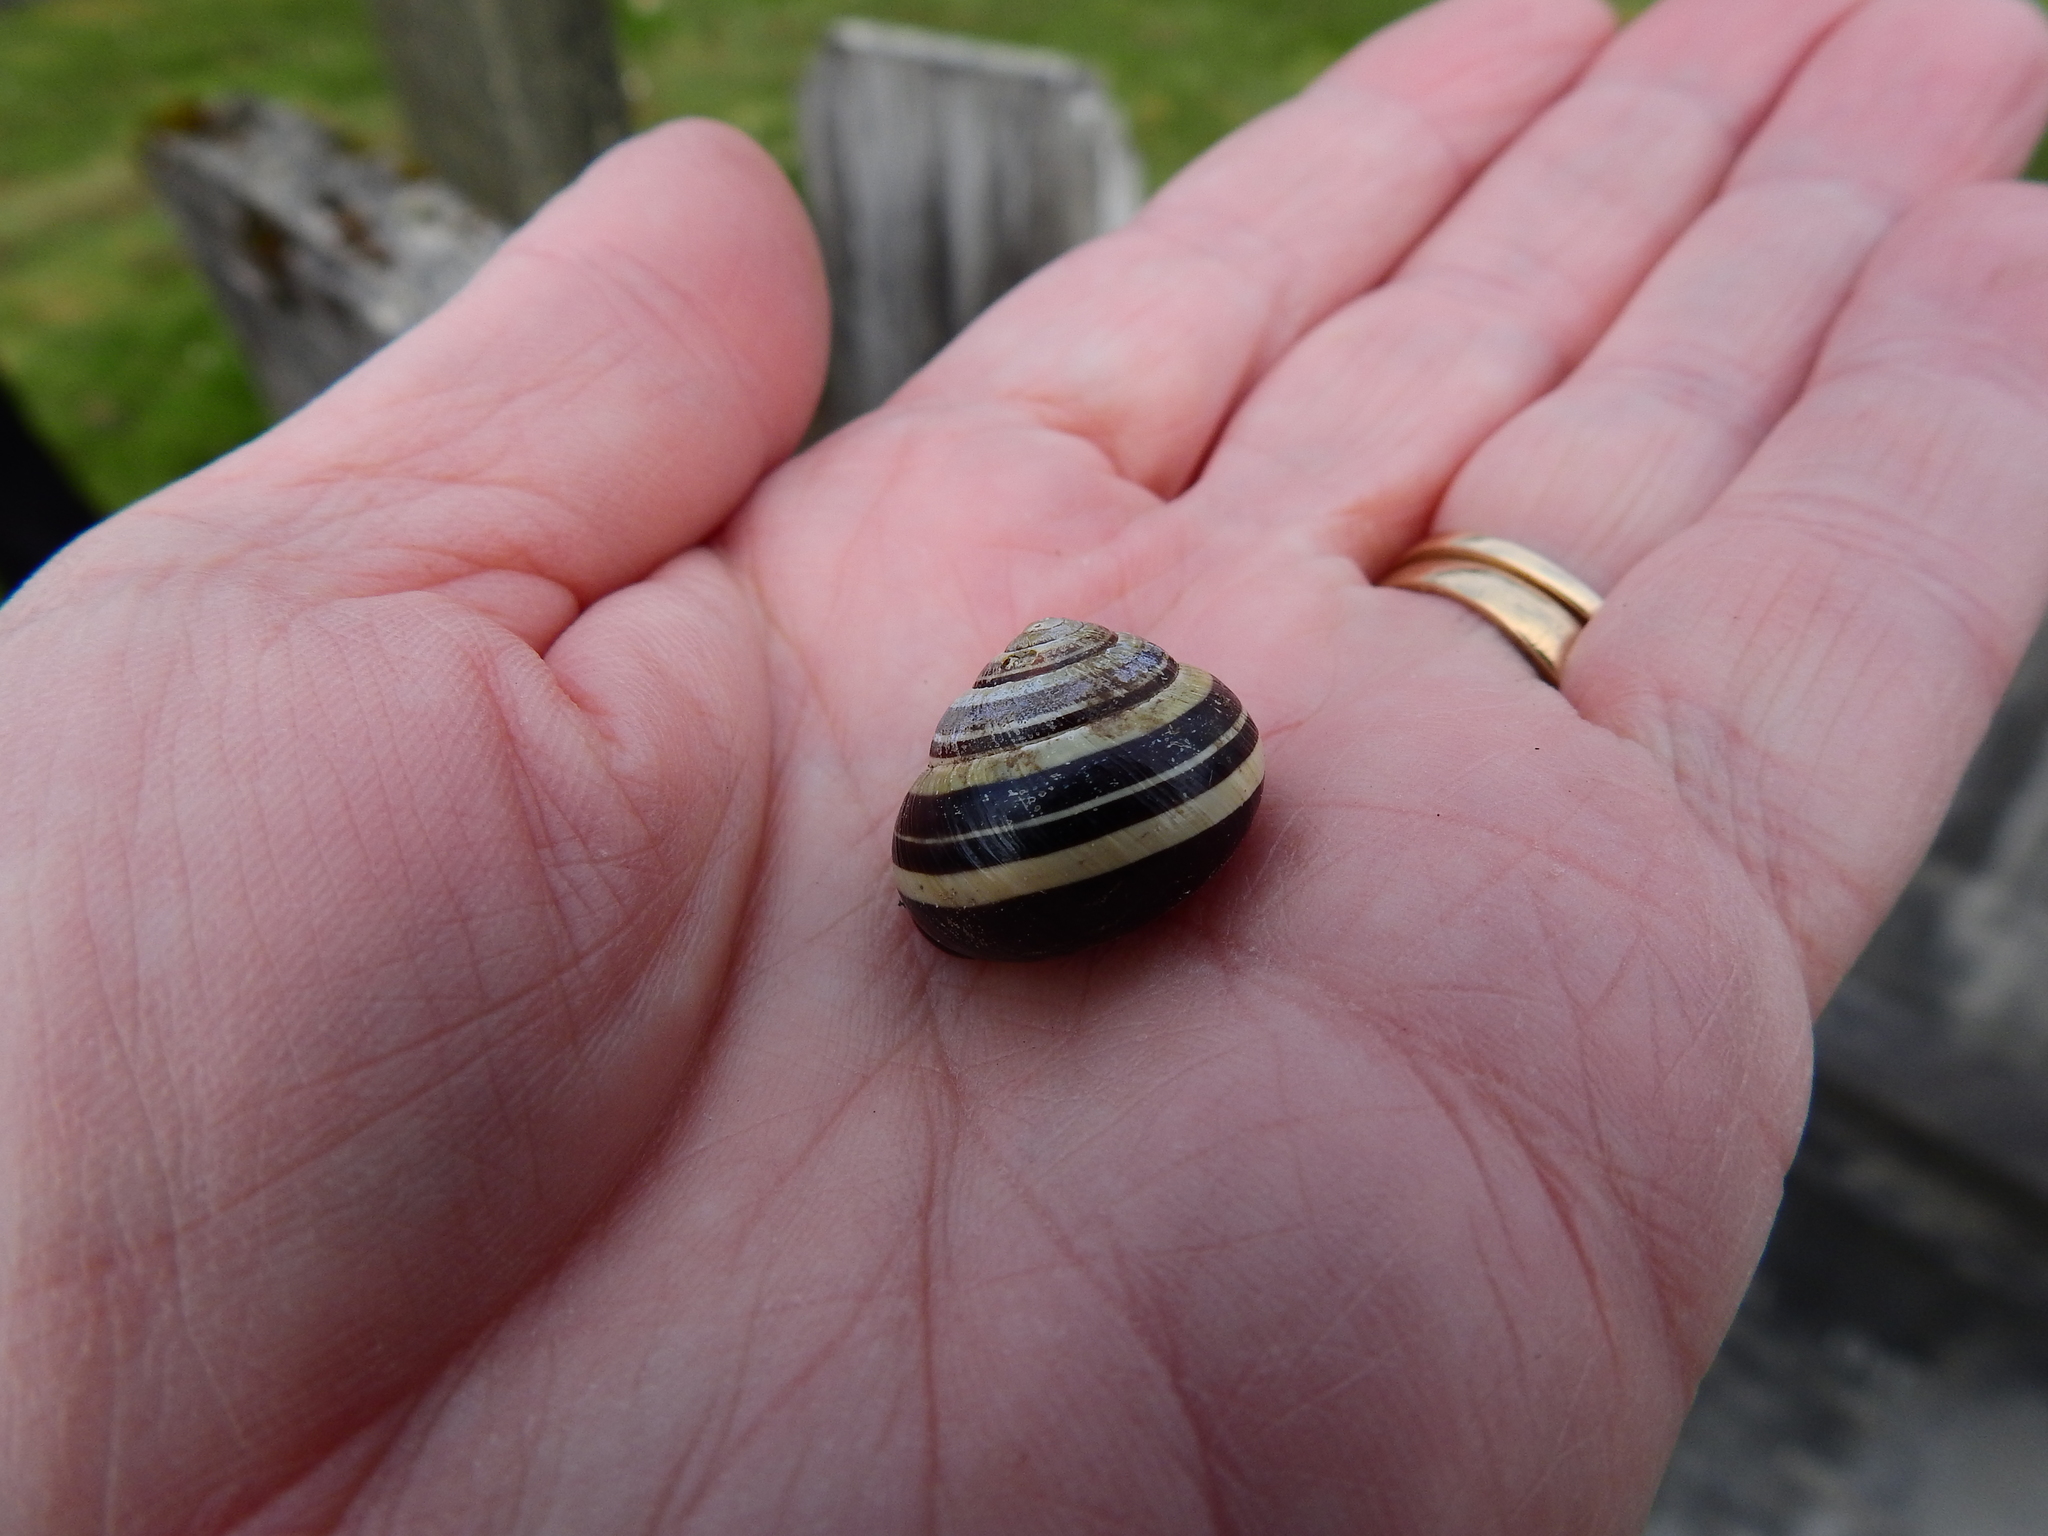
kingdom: Animalia
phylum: Mollusca
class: Gastropoda
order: Stylommatophora
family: Helicidae
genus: Cepaea
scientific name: Cepaea nemoralis
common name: Grovesnail
